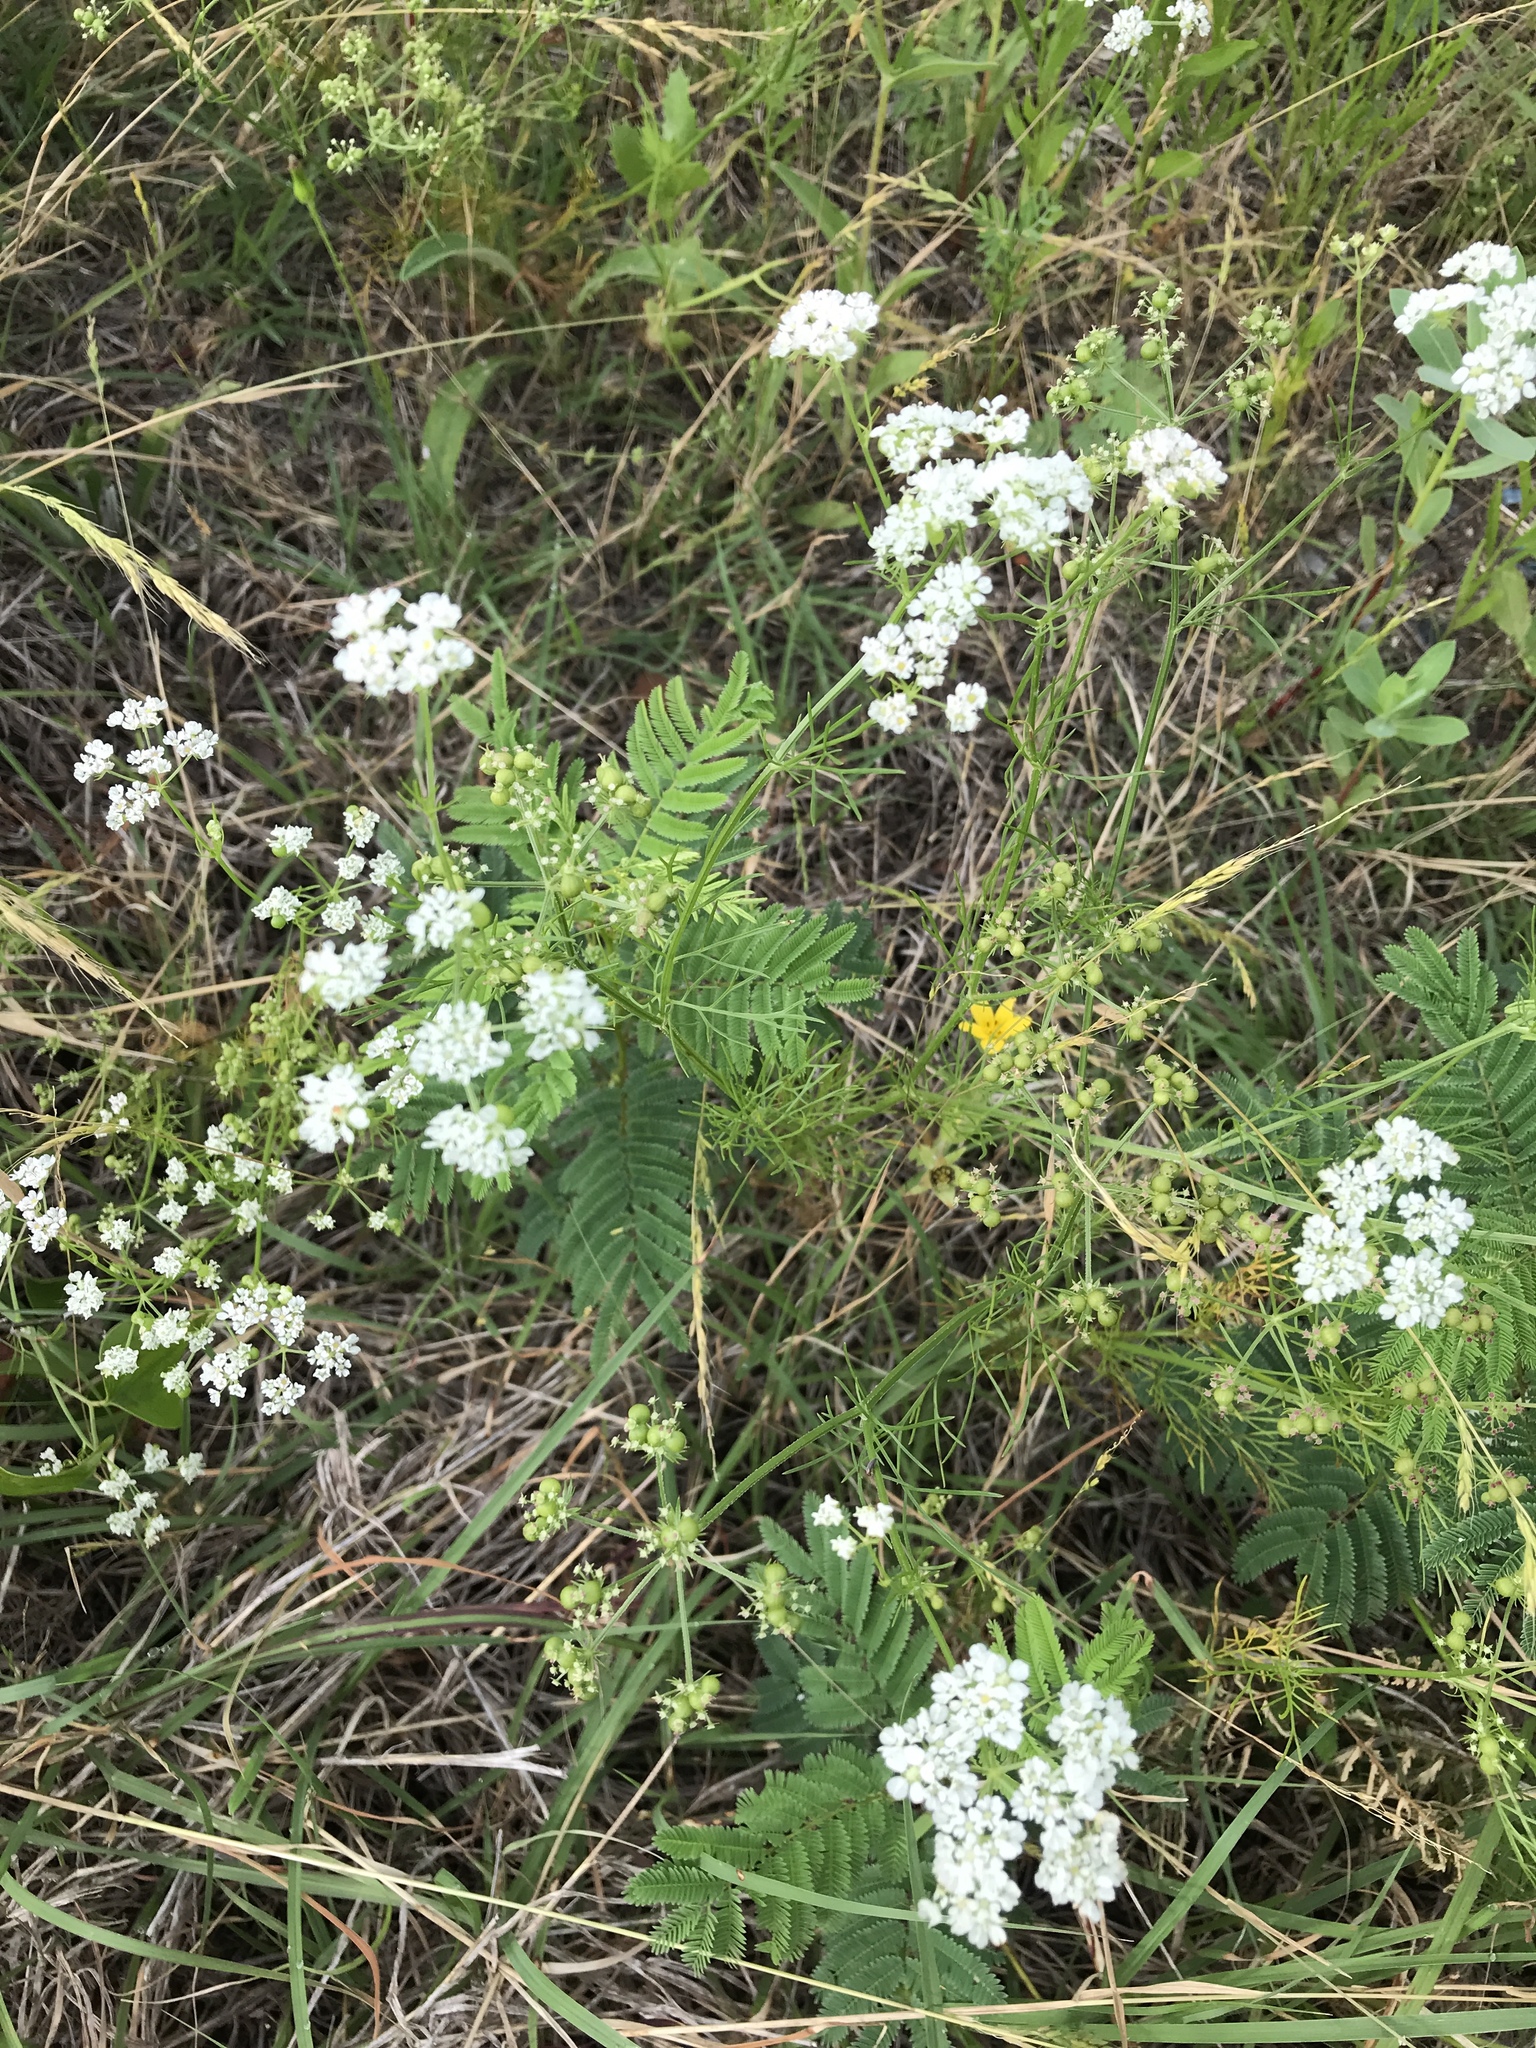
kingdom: Plantae
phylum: Tracheophyta
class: Magnoliopsida
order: Apiales
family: Apiaceae
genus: Atrema
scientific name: Atrema americanum
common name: Prairie-bishop
